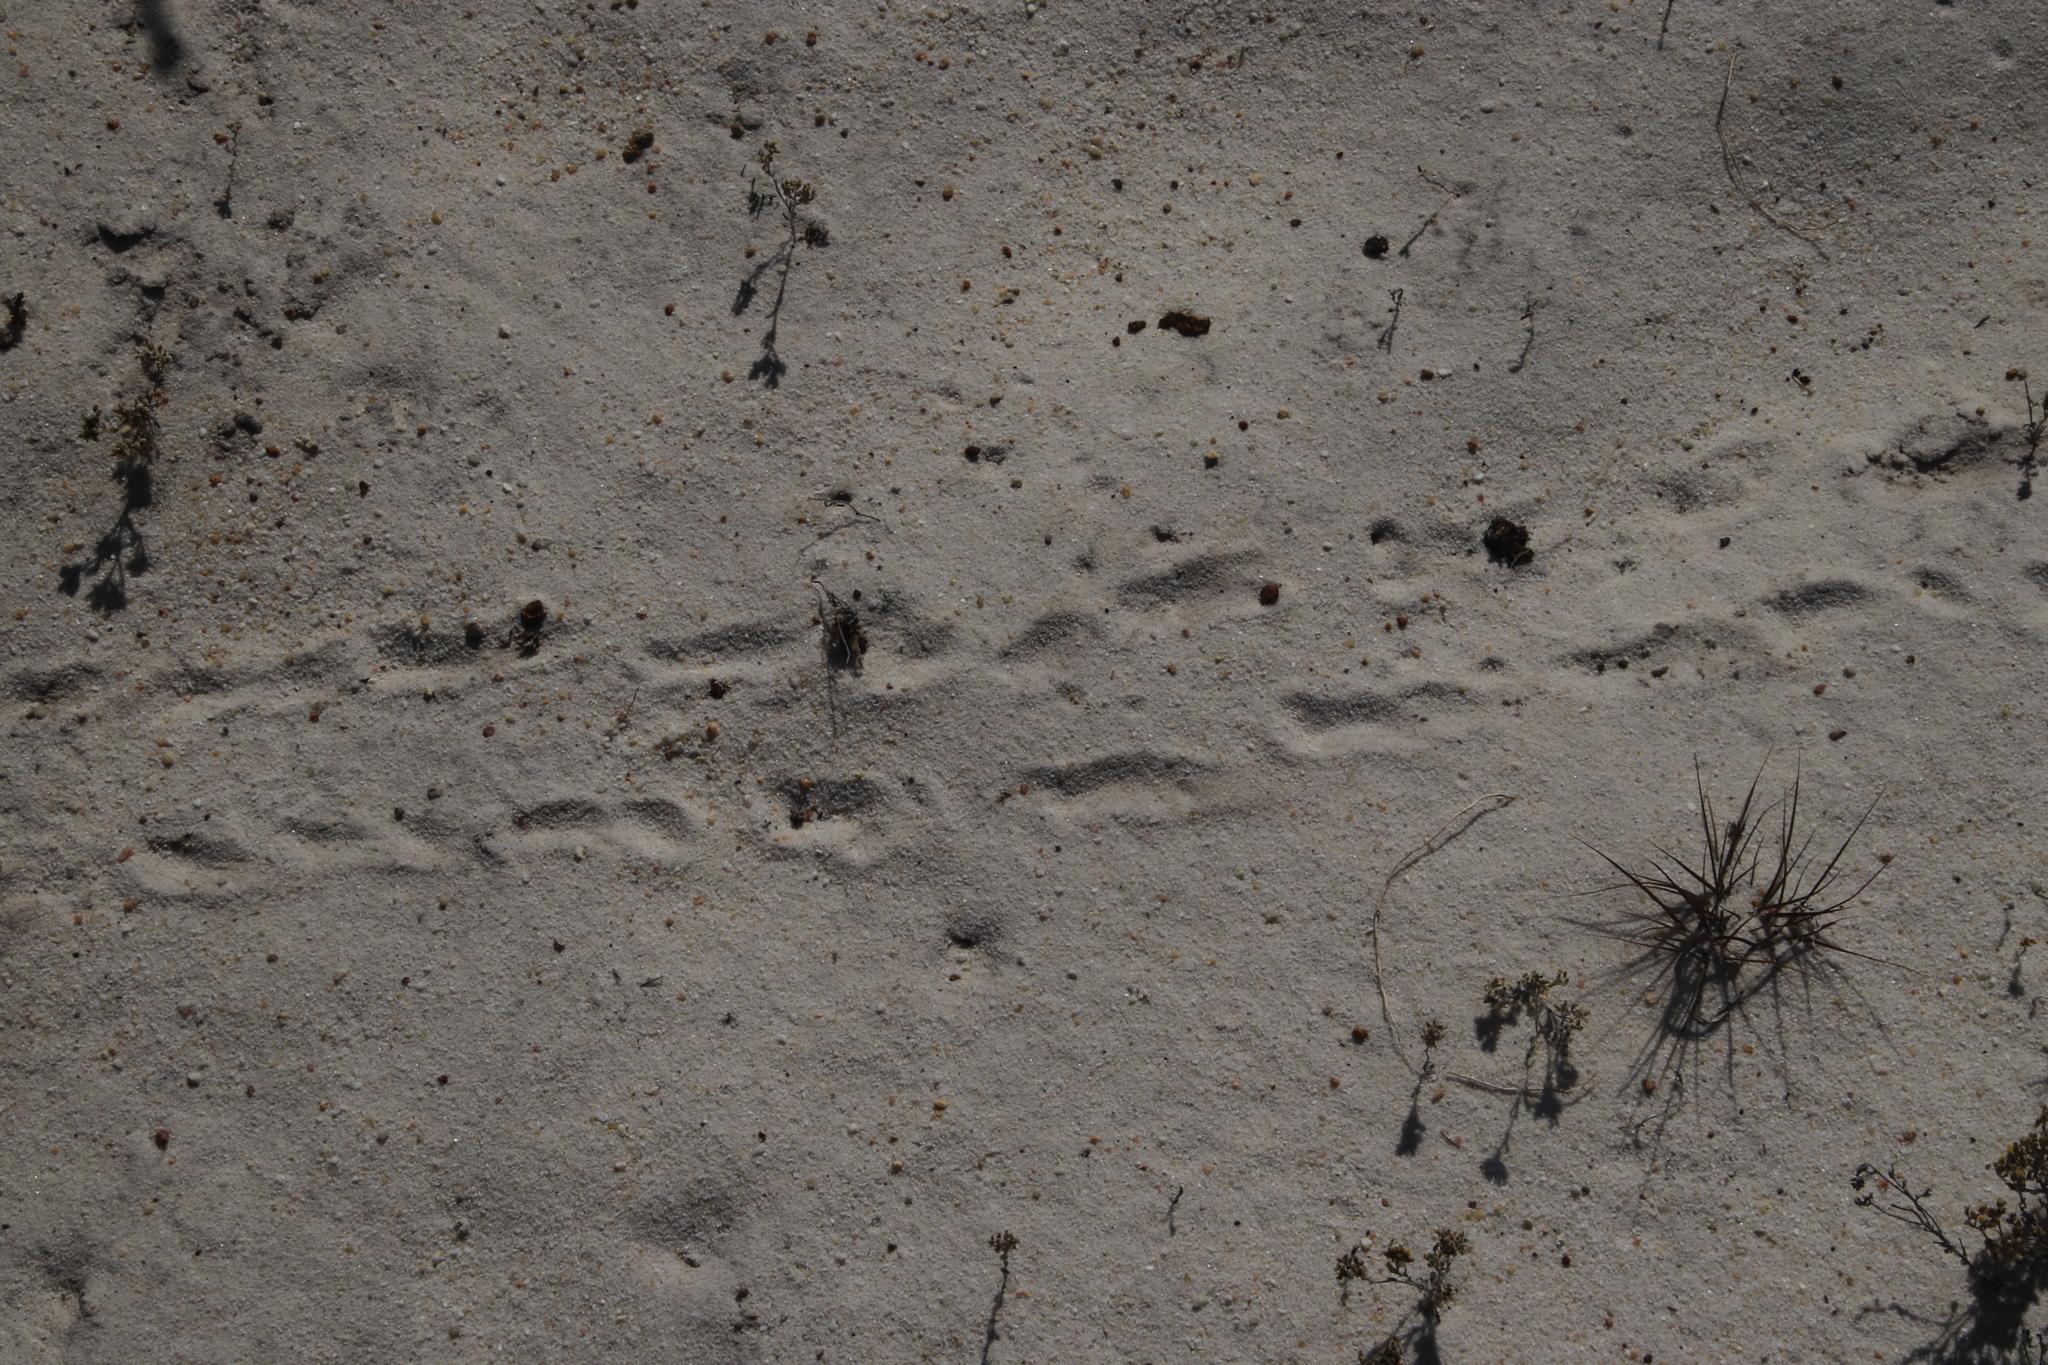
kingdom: Animalia
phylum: Chordata
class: Testudines
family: Testudinidae
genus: Homopus
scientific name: Homopus areolatus
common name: Parrot-beaked tortoise
